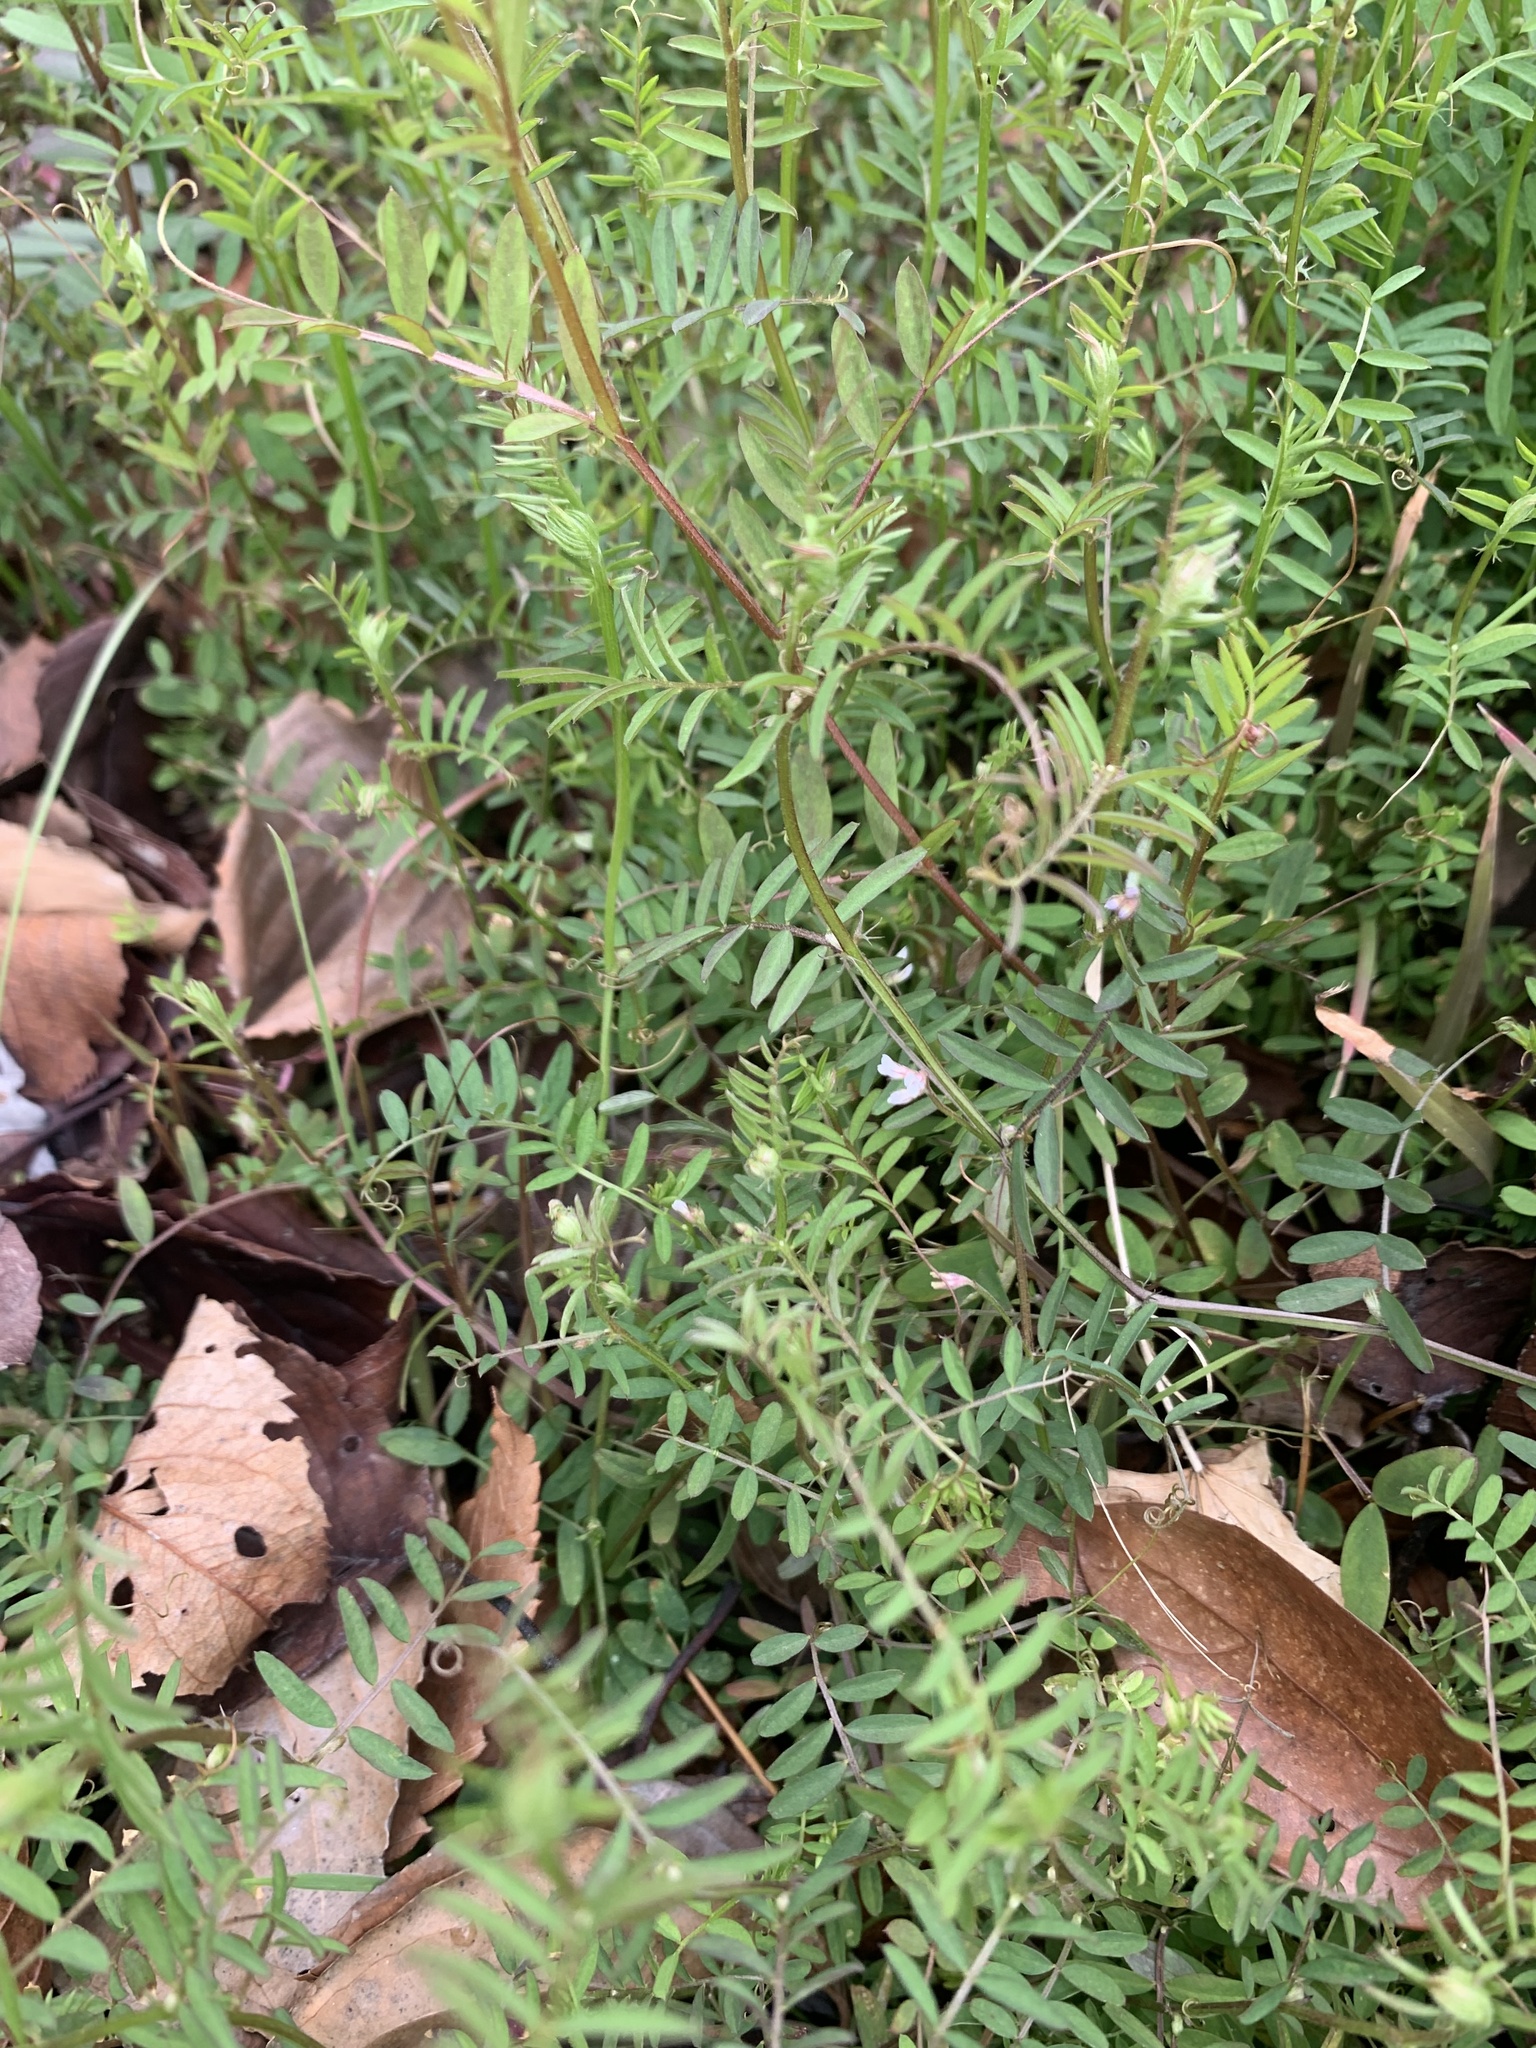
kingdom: Plantae
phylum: Tracheophyta
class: Magnoliopsida
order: Fabales
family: Fabaceae
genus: Vicia
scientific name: Vicia hirsuta
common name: Tiny vetch
